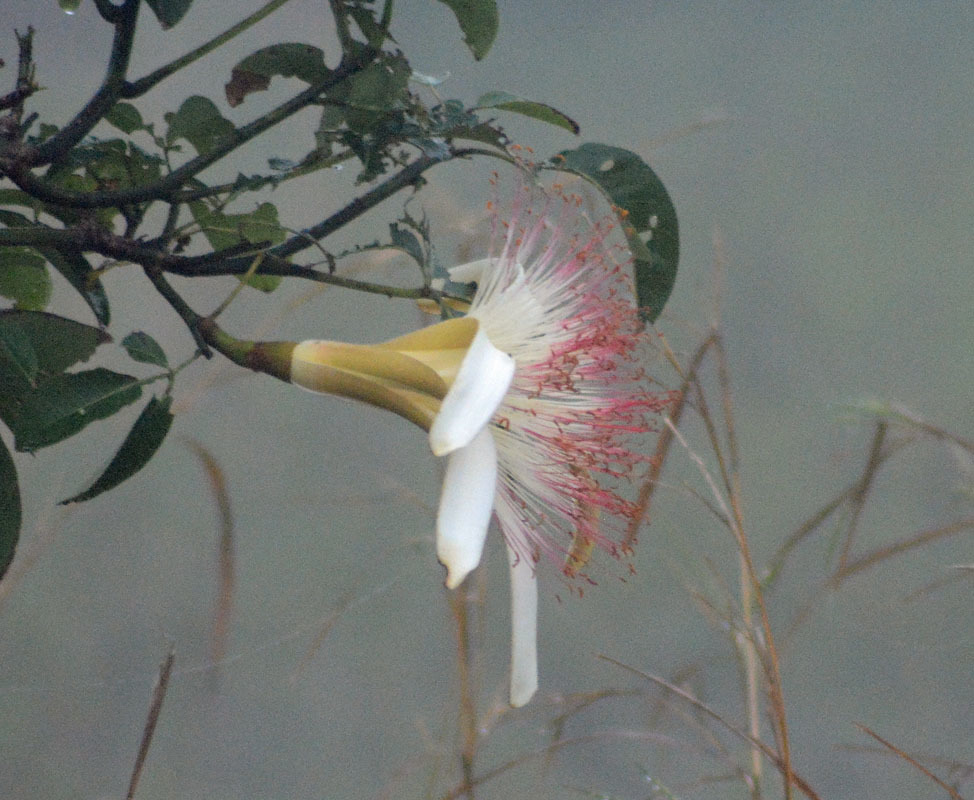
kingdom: Plantae
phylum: Tracheophyta
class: Magnoliopsida
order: Malvales
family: Malvaceae
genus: Pachira
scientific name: Pachira aquatica
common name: Provision-tree
